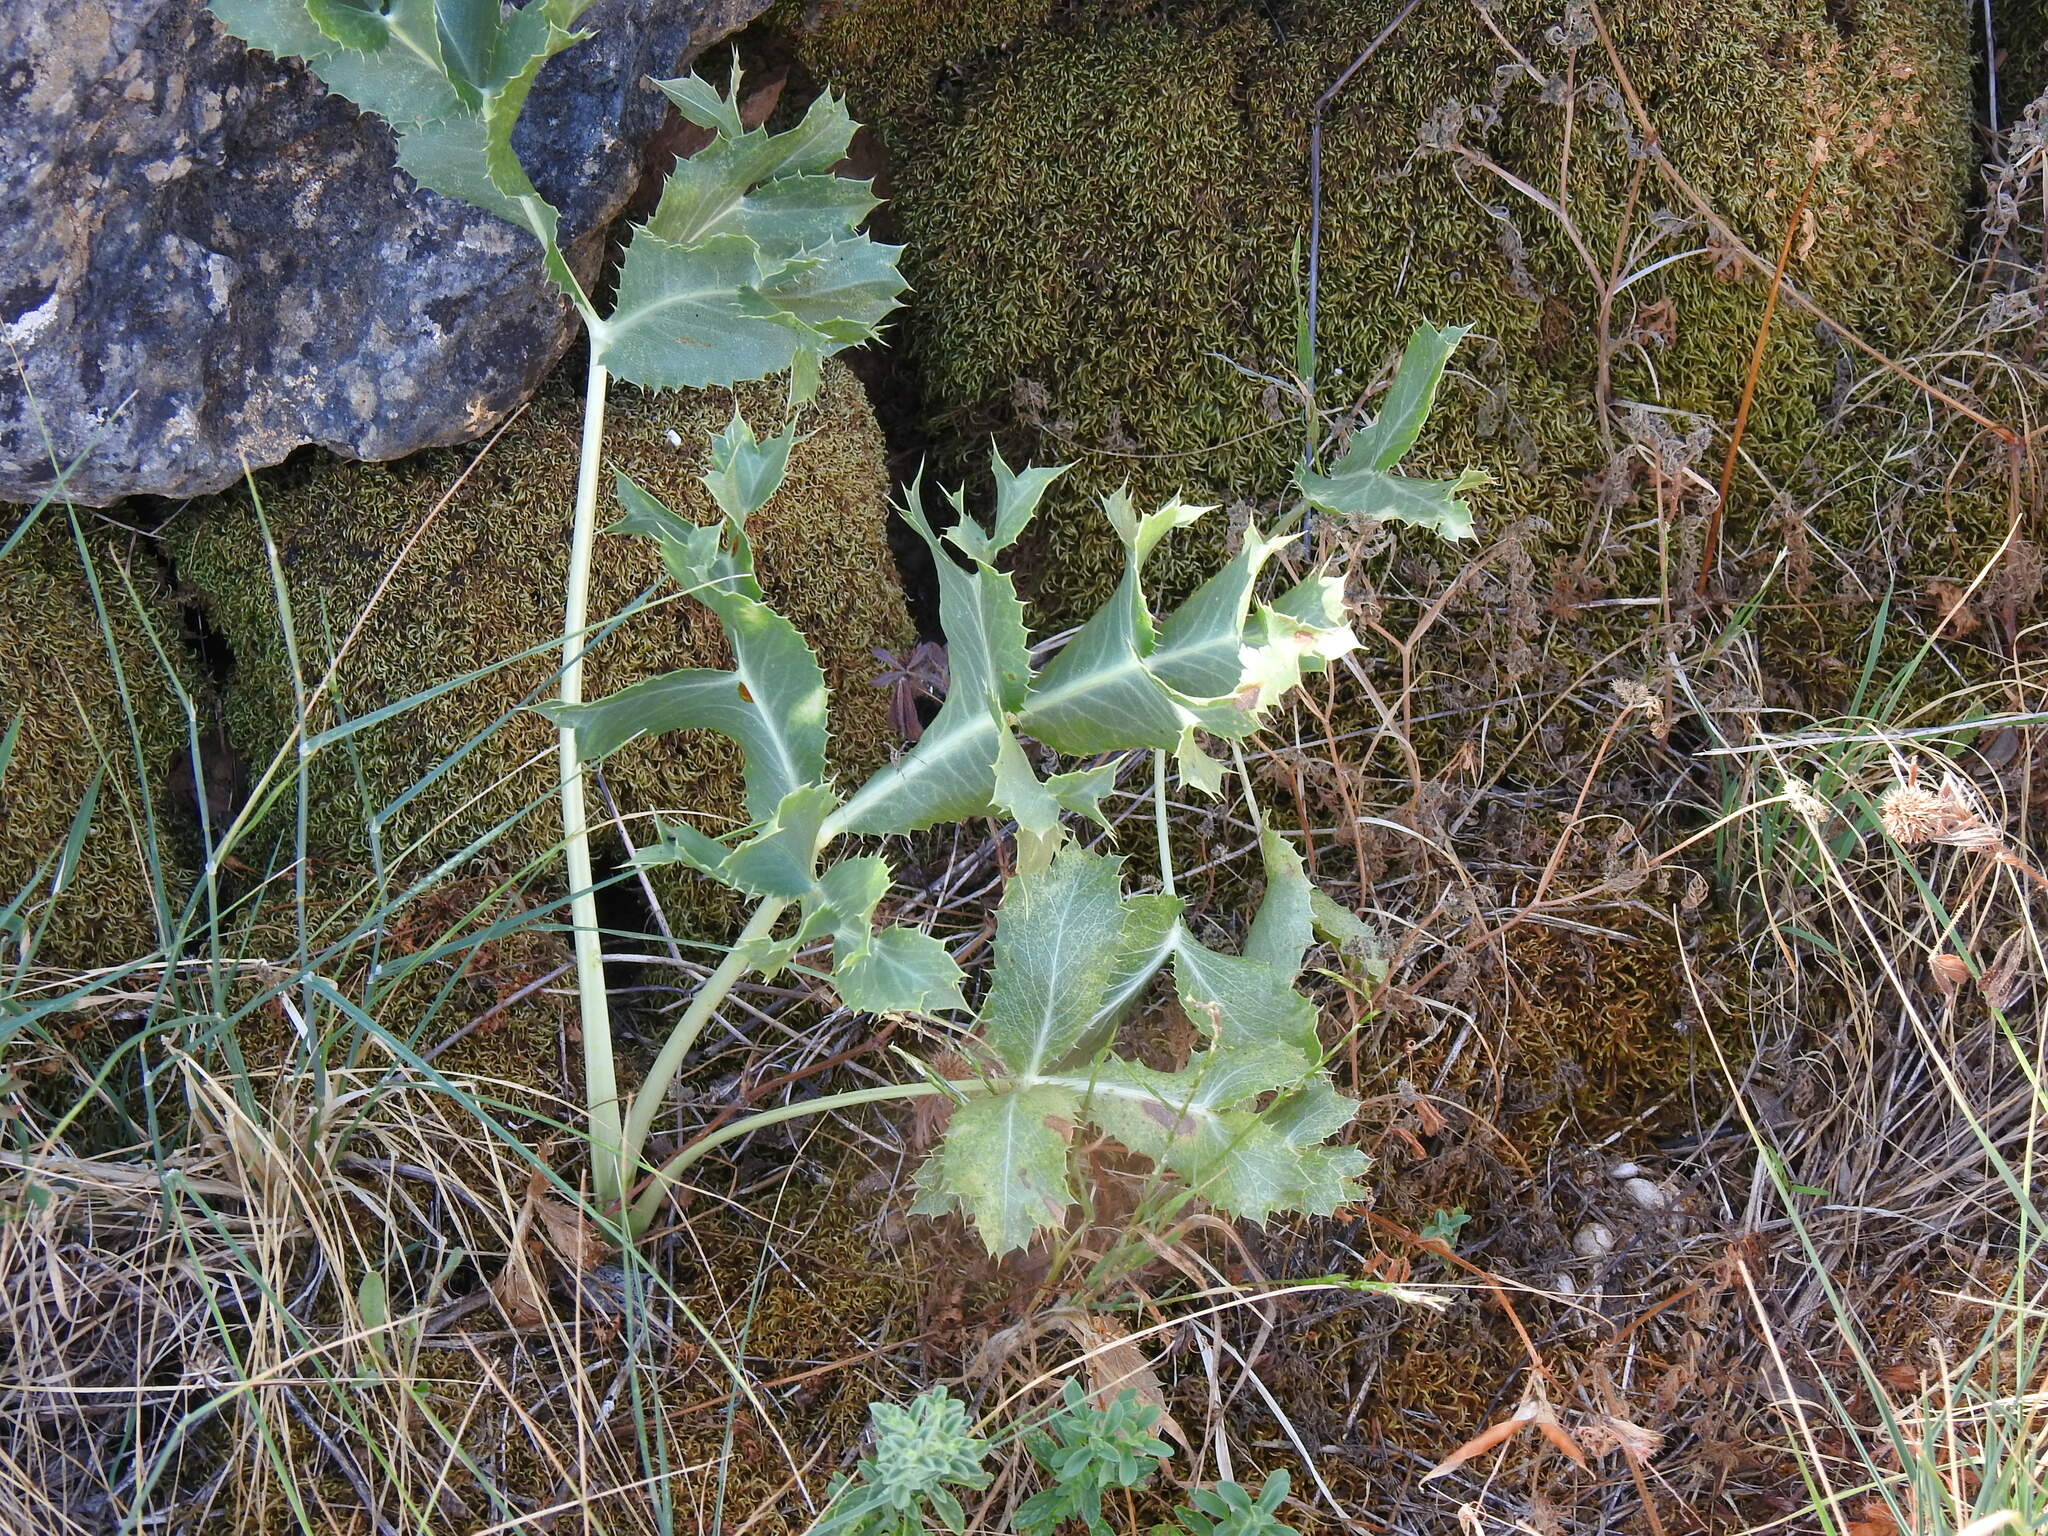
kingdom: Plantae
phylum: Tracheophyta
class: Magnoliopsida
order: Apiales
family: Apiaceae
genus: Eryngium
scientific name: Eryngium campestre
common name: Field eryngo
